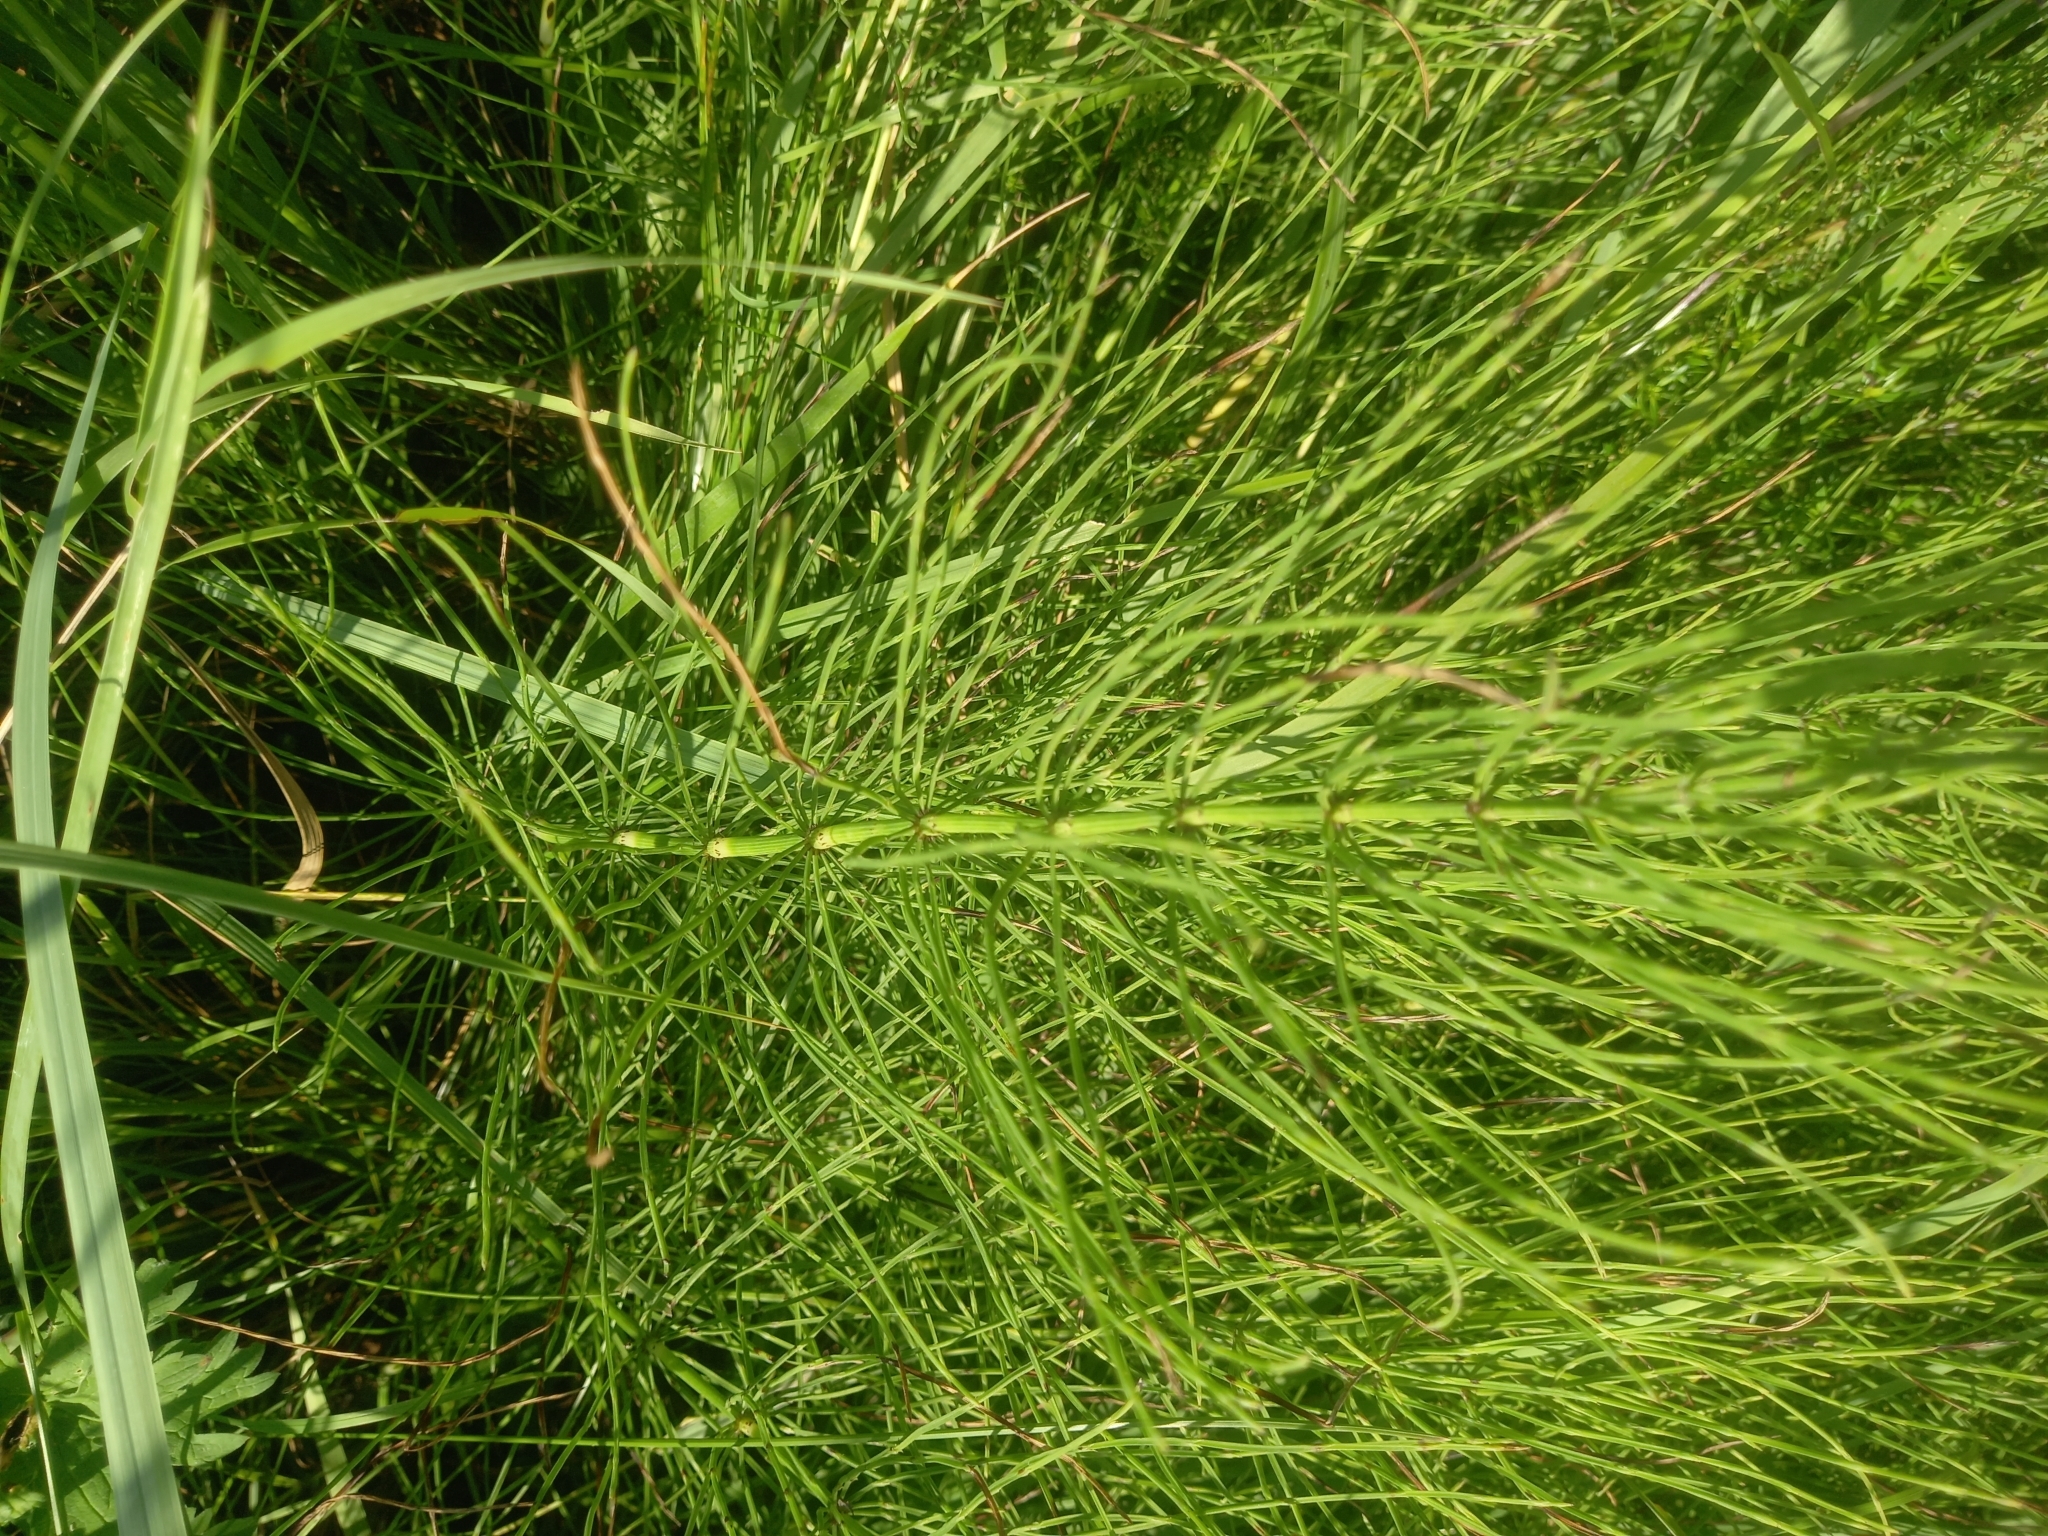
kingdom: Plantae
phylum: Tracheophyta
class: Polypodiopsida
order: Equisetales
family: Equisetaceae
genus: Equisetum
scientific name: Equisetum arvense
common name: Field horsetail
